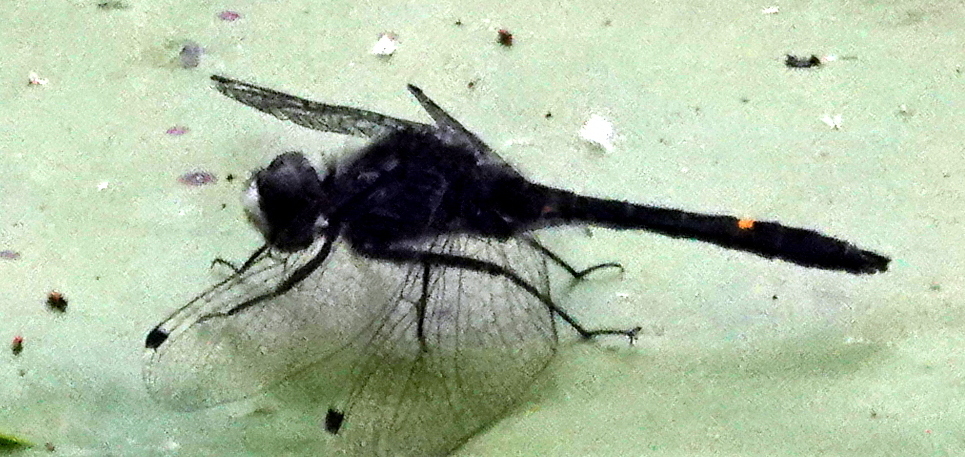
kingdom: Animalia
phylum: Arthropoda
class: Insecta
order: Odonata
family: Libellulidae
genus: Leucorrhinia
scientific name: Leucorrhinia intacta
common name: Dot-tailed whiteface
